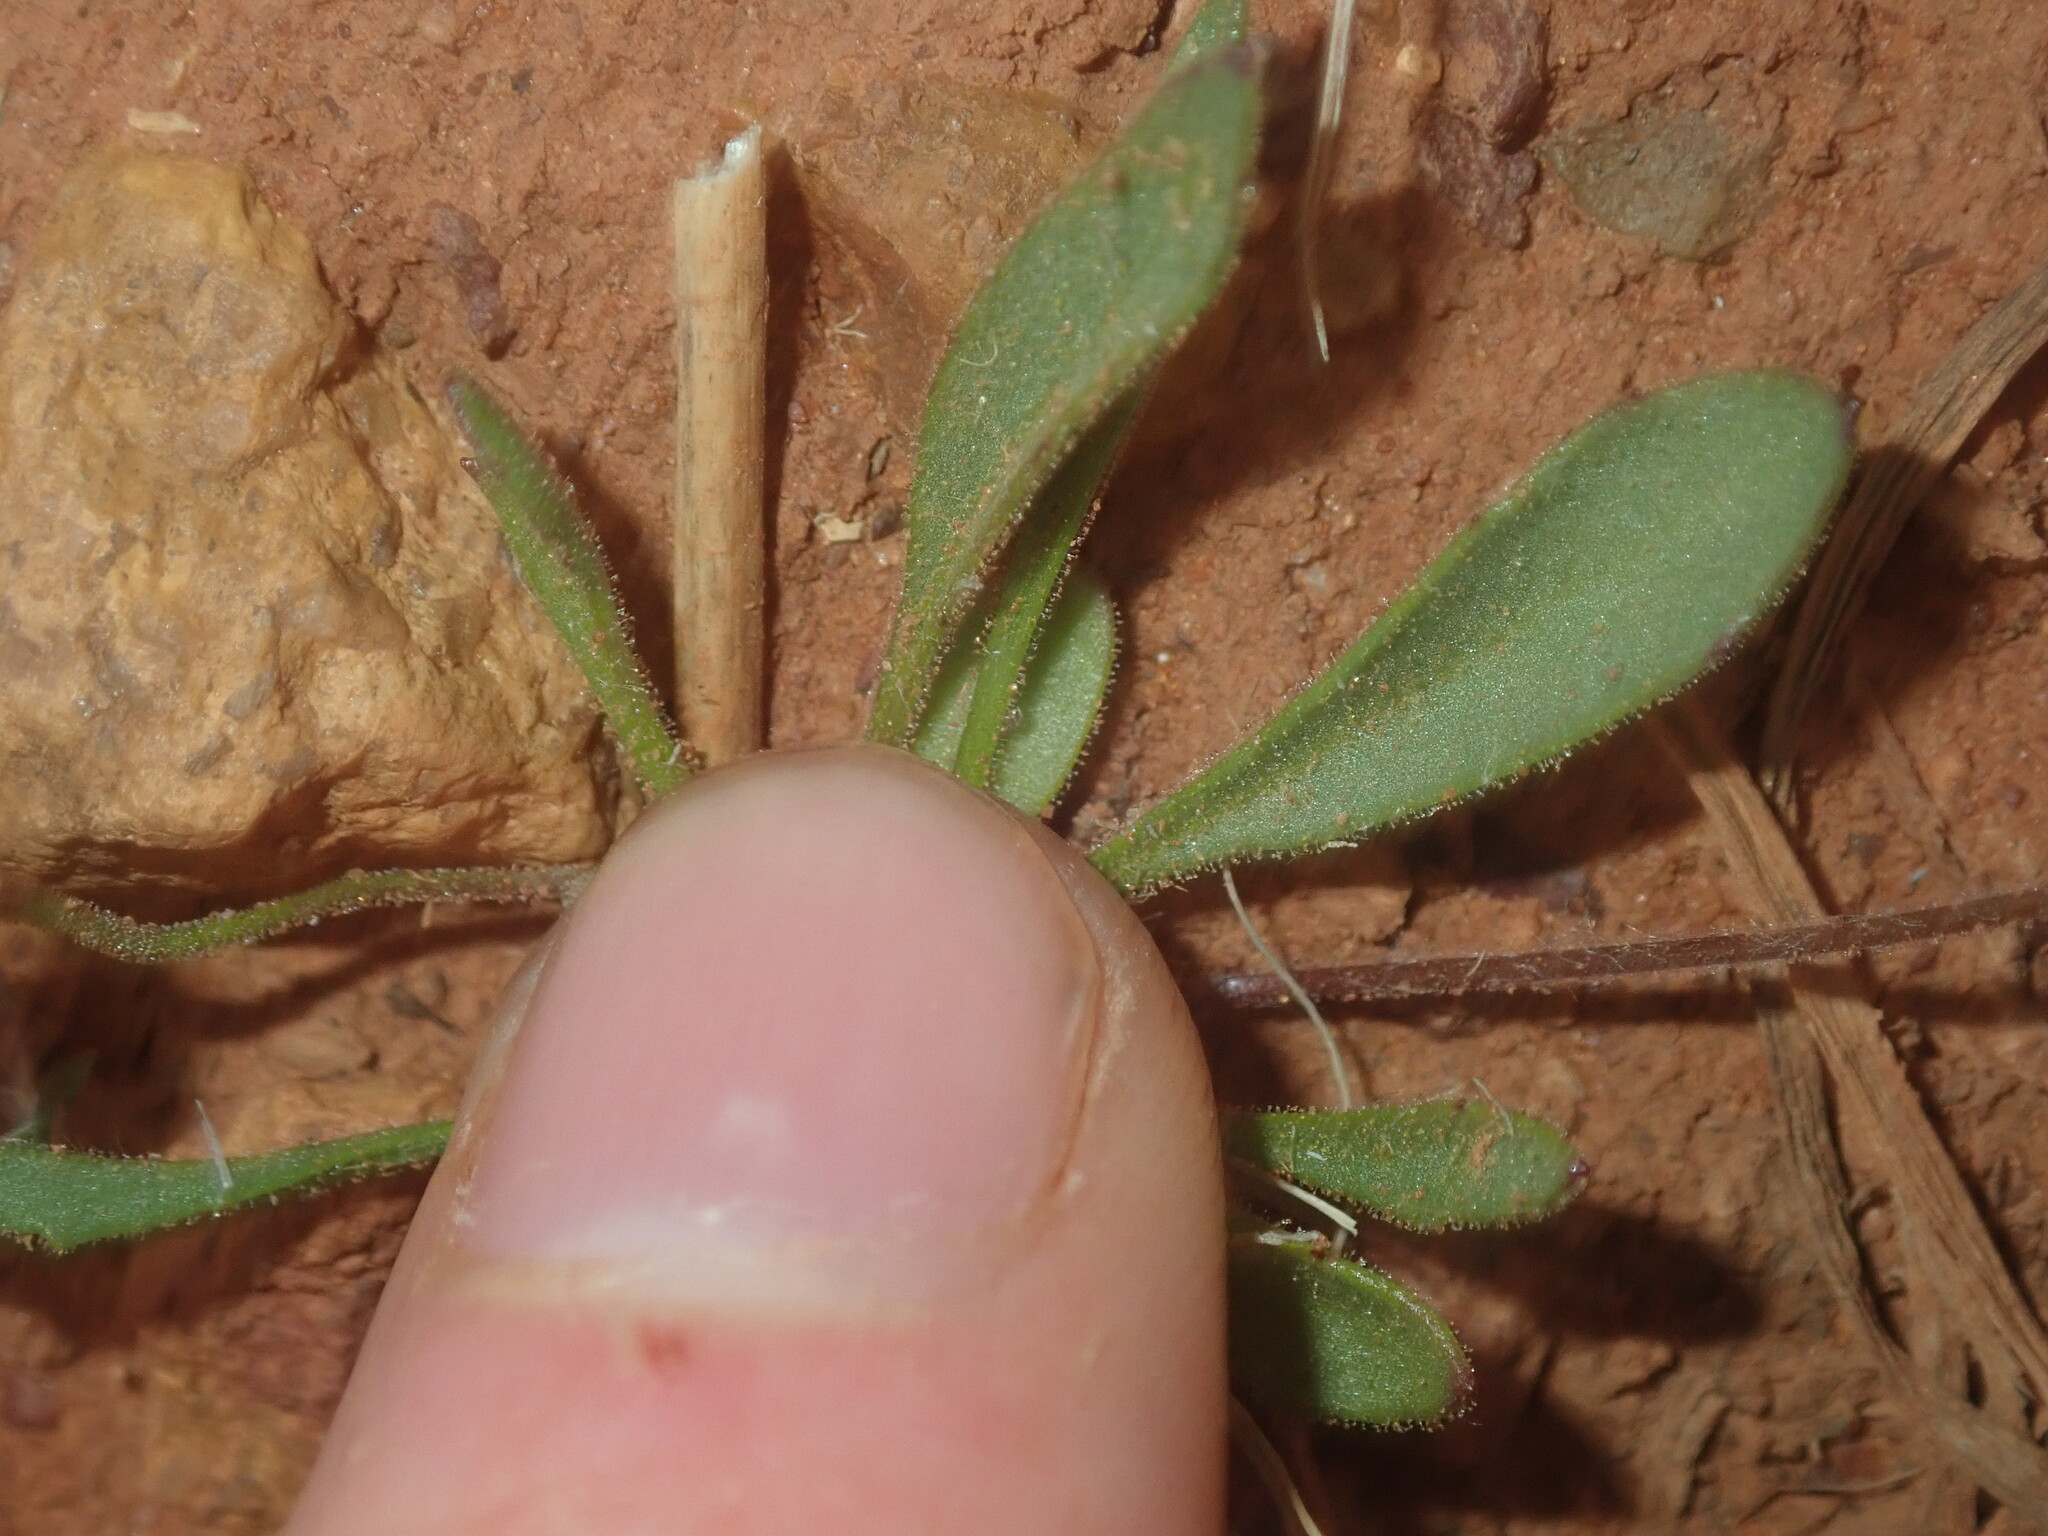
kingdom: Plantae
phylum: Tracheophyta
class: Magnoliopsida
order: Asterales
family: Goodeniaceae
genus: Goodenia
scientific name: Goodenia berardiana
